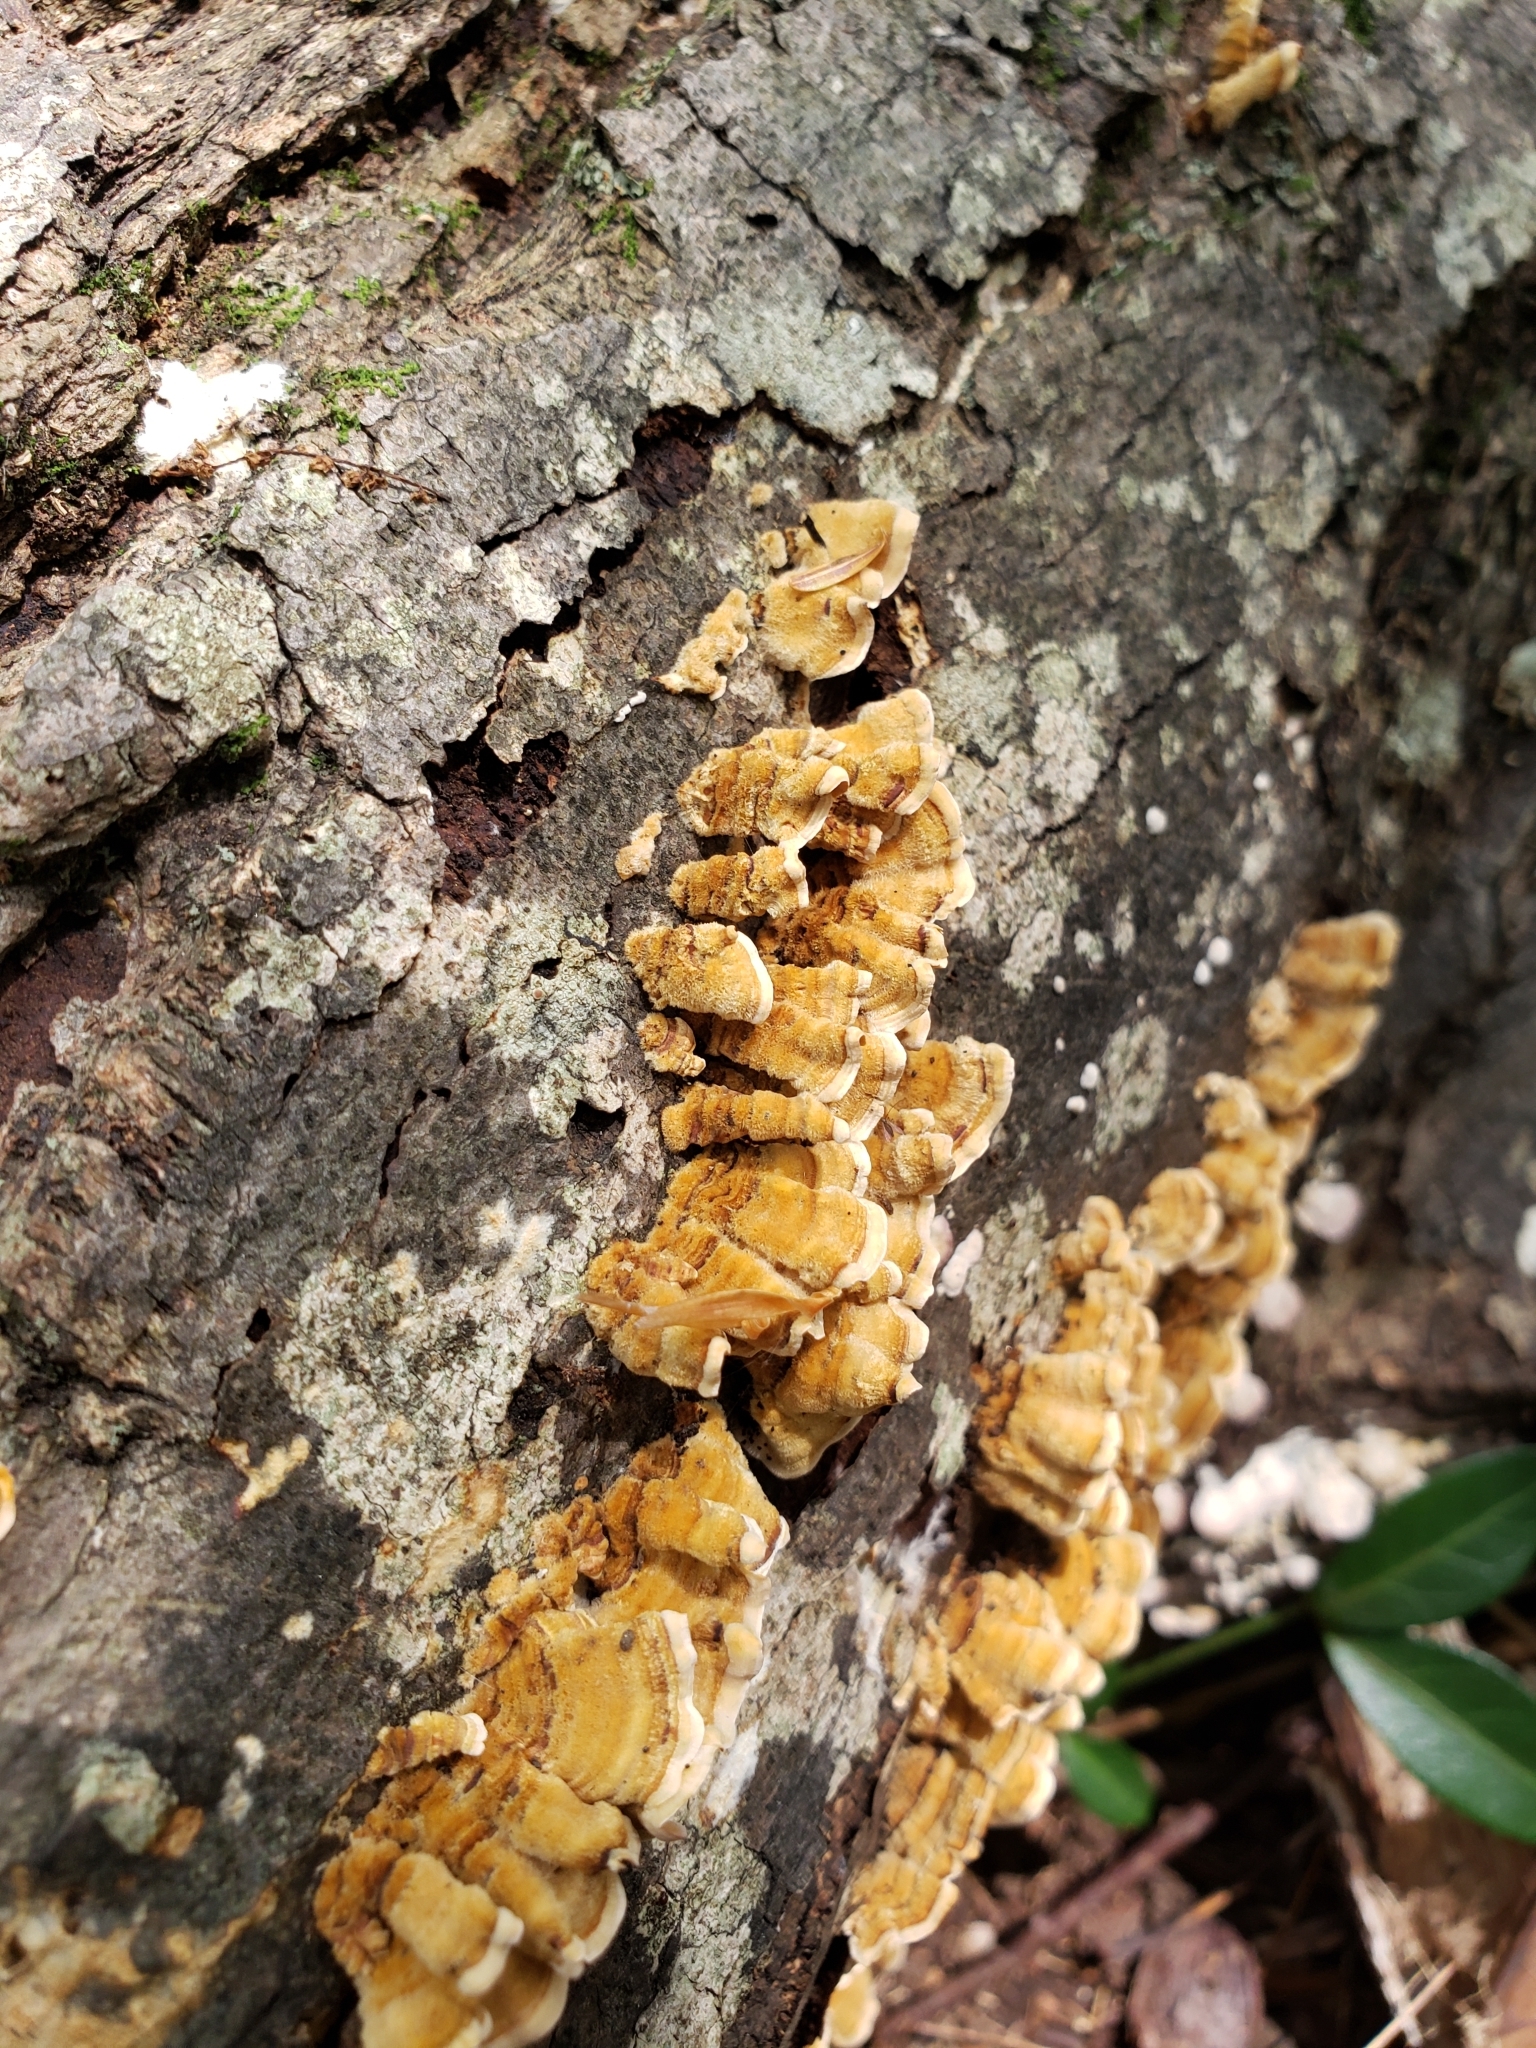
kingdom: Fungi
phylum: Basidiomycota
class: Agaricomycetes
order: Russulales
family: Stereaceae
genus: Stereum
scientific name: Stereum complicatum
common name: Crowded parchment
